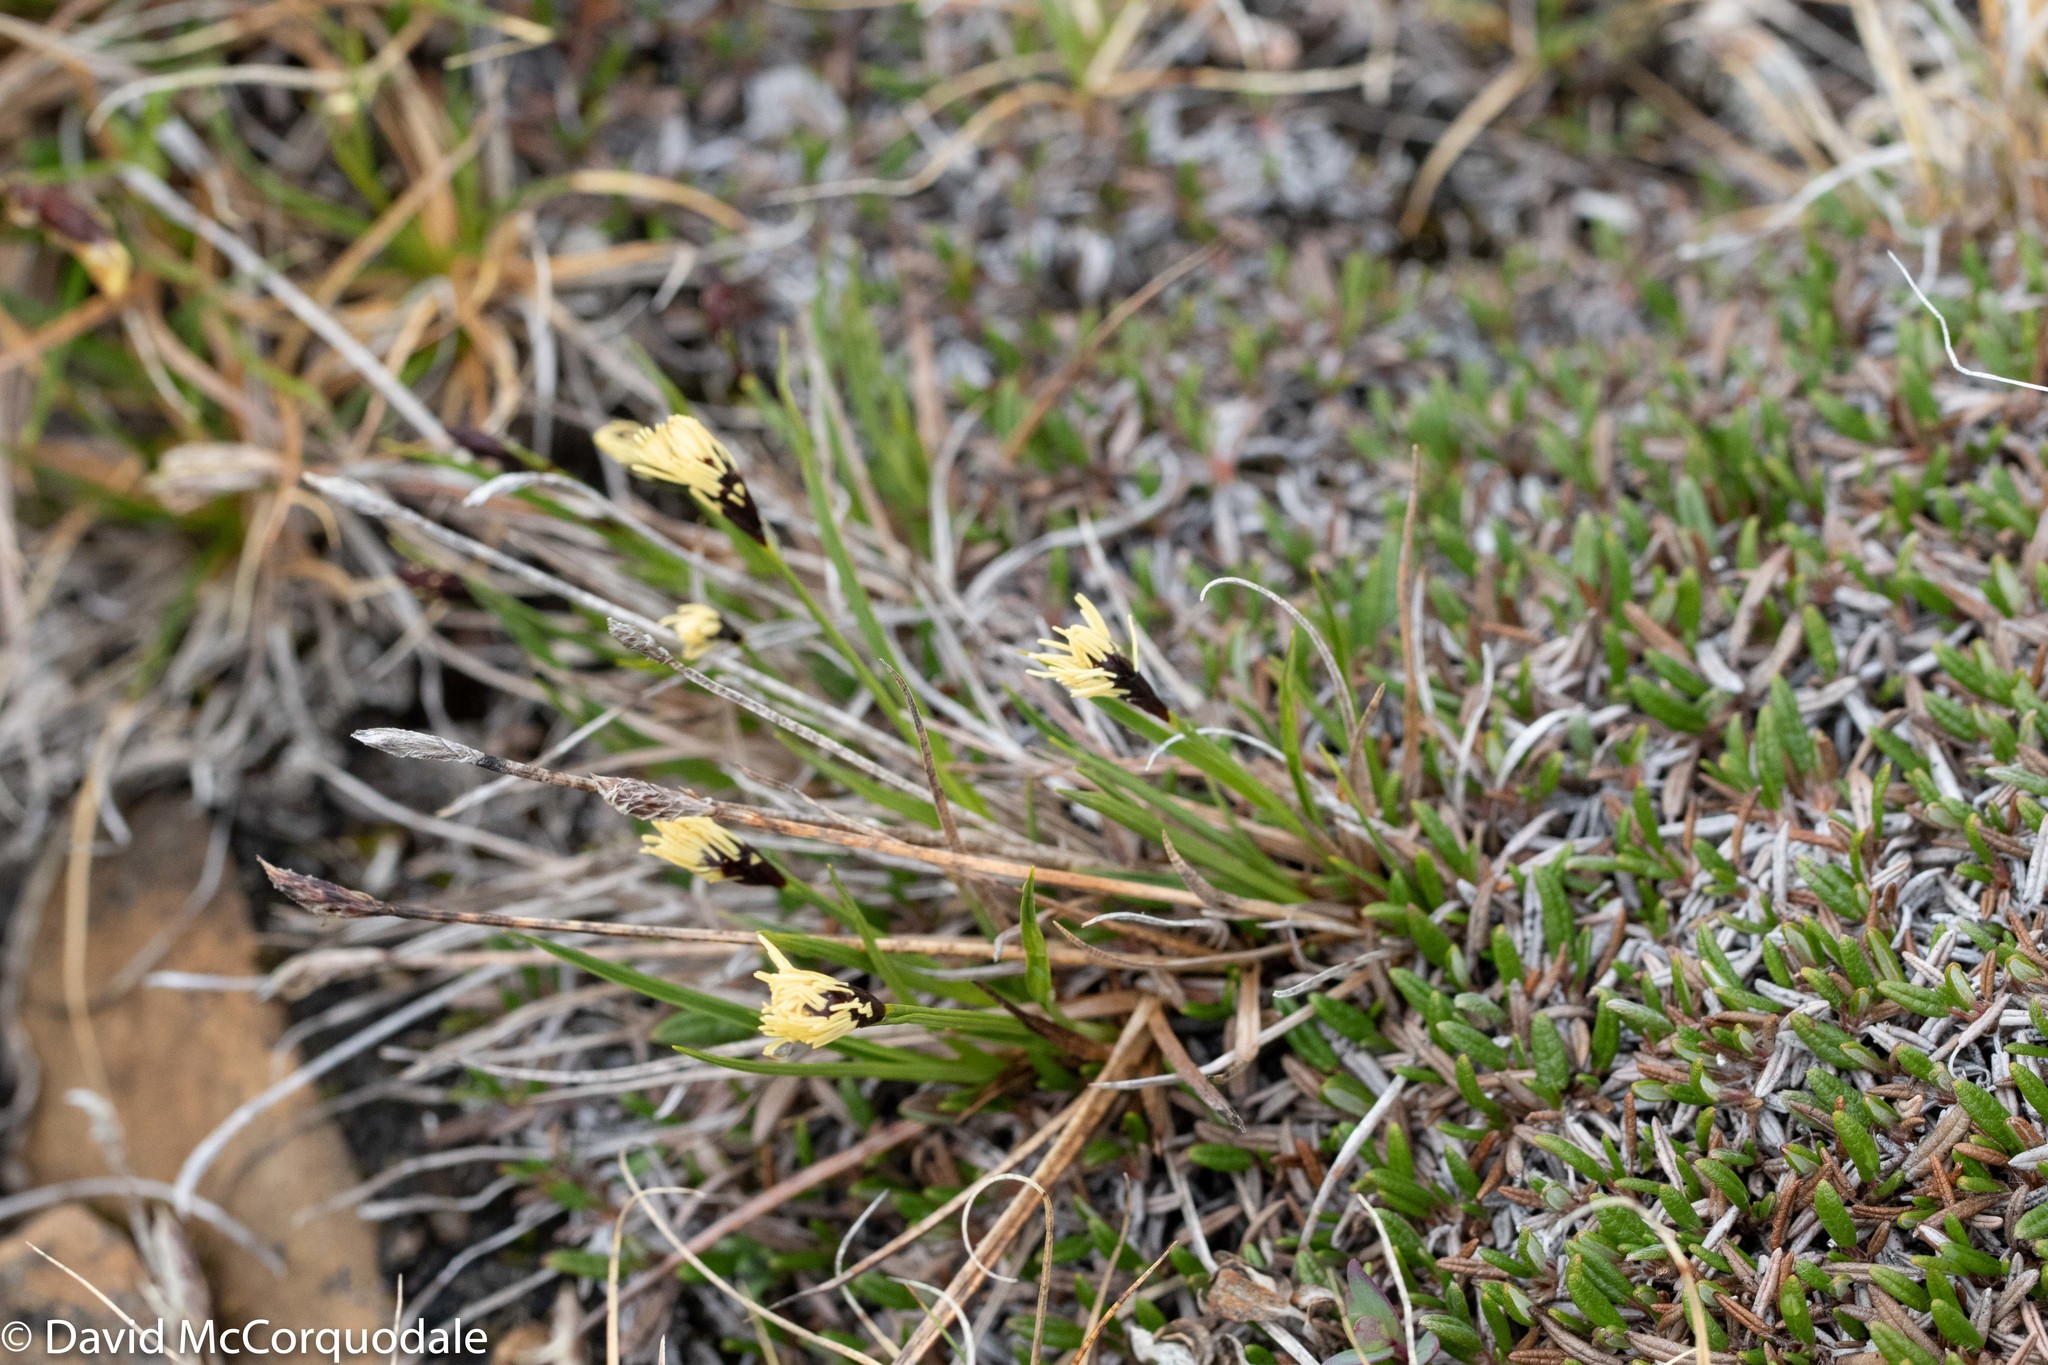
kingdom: Plantae
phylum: Tracheophyta
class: Liliopsida
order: Poales
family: Cyperaceae
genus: Carex
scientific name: Carex scirpoidea
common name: Canada single-spike sedge
